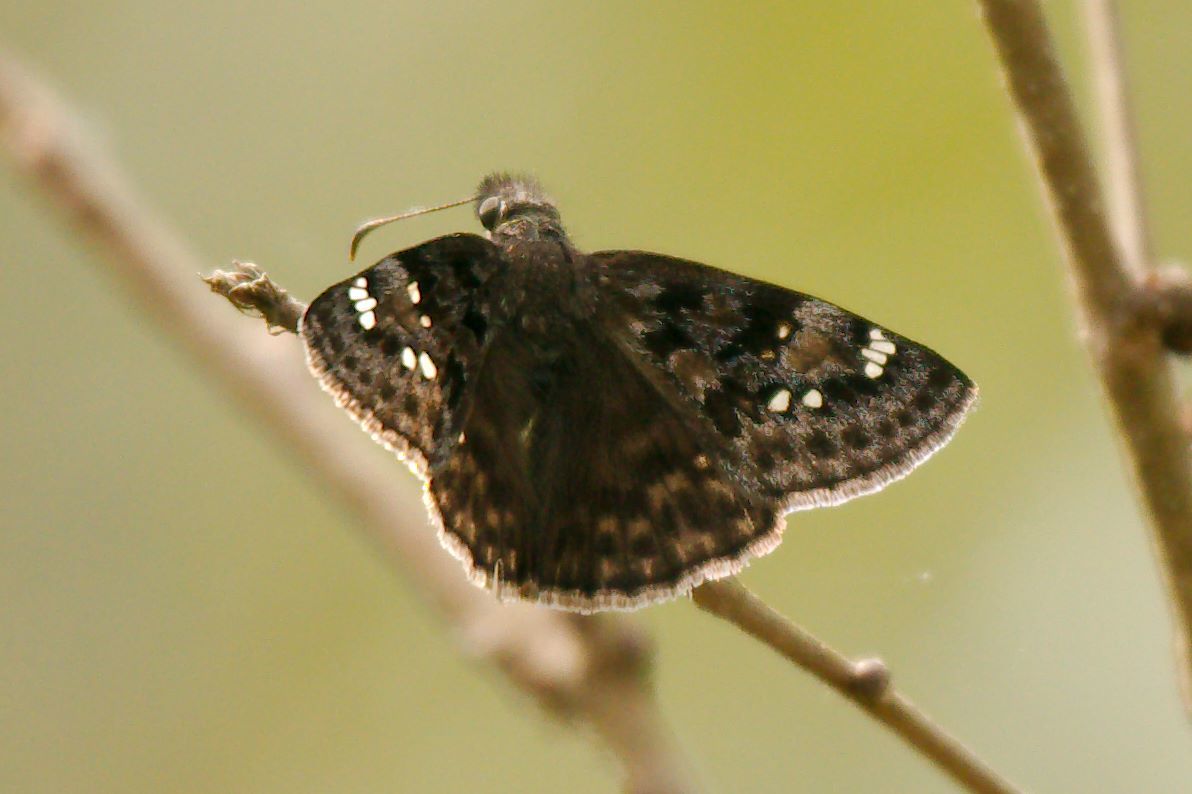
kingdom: Animalia
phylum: Arthropoda
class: Insecta
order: Lepidoptera
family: Hesperiidae
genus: Erynnis
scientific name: Erynnis horatius
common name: Horace's duskywing
